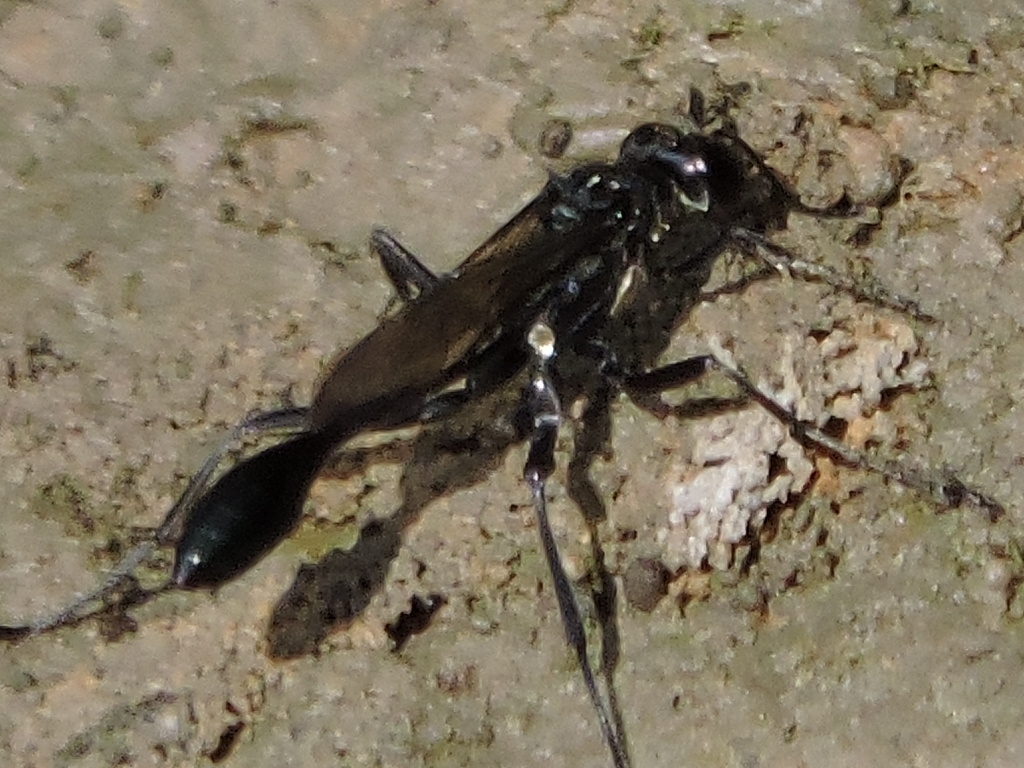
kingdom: Animalia
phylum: Arthropoda
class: Insecta
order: Hymenoptera
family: Sphecidae
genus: Eremnophila
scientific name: Eremnophila aureonotata
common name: Gold-marked thread-waisted wasp
